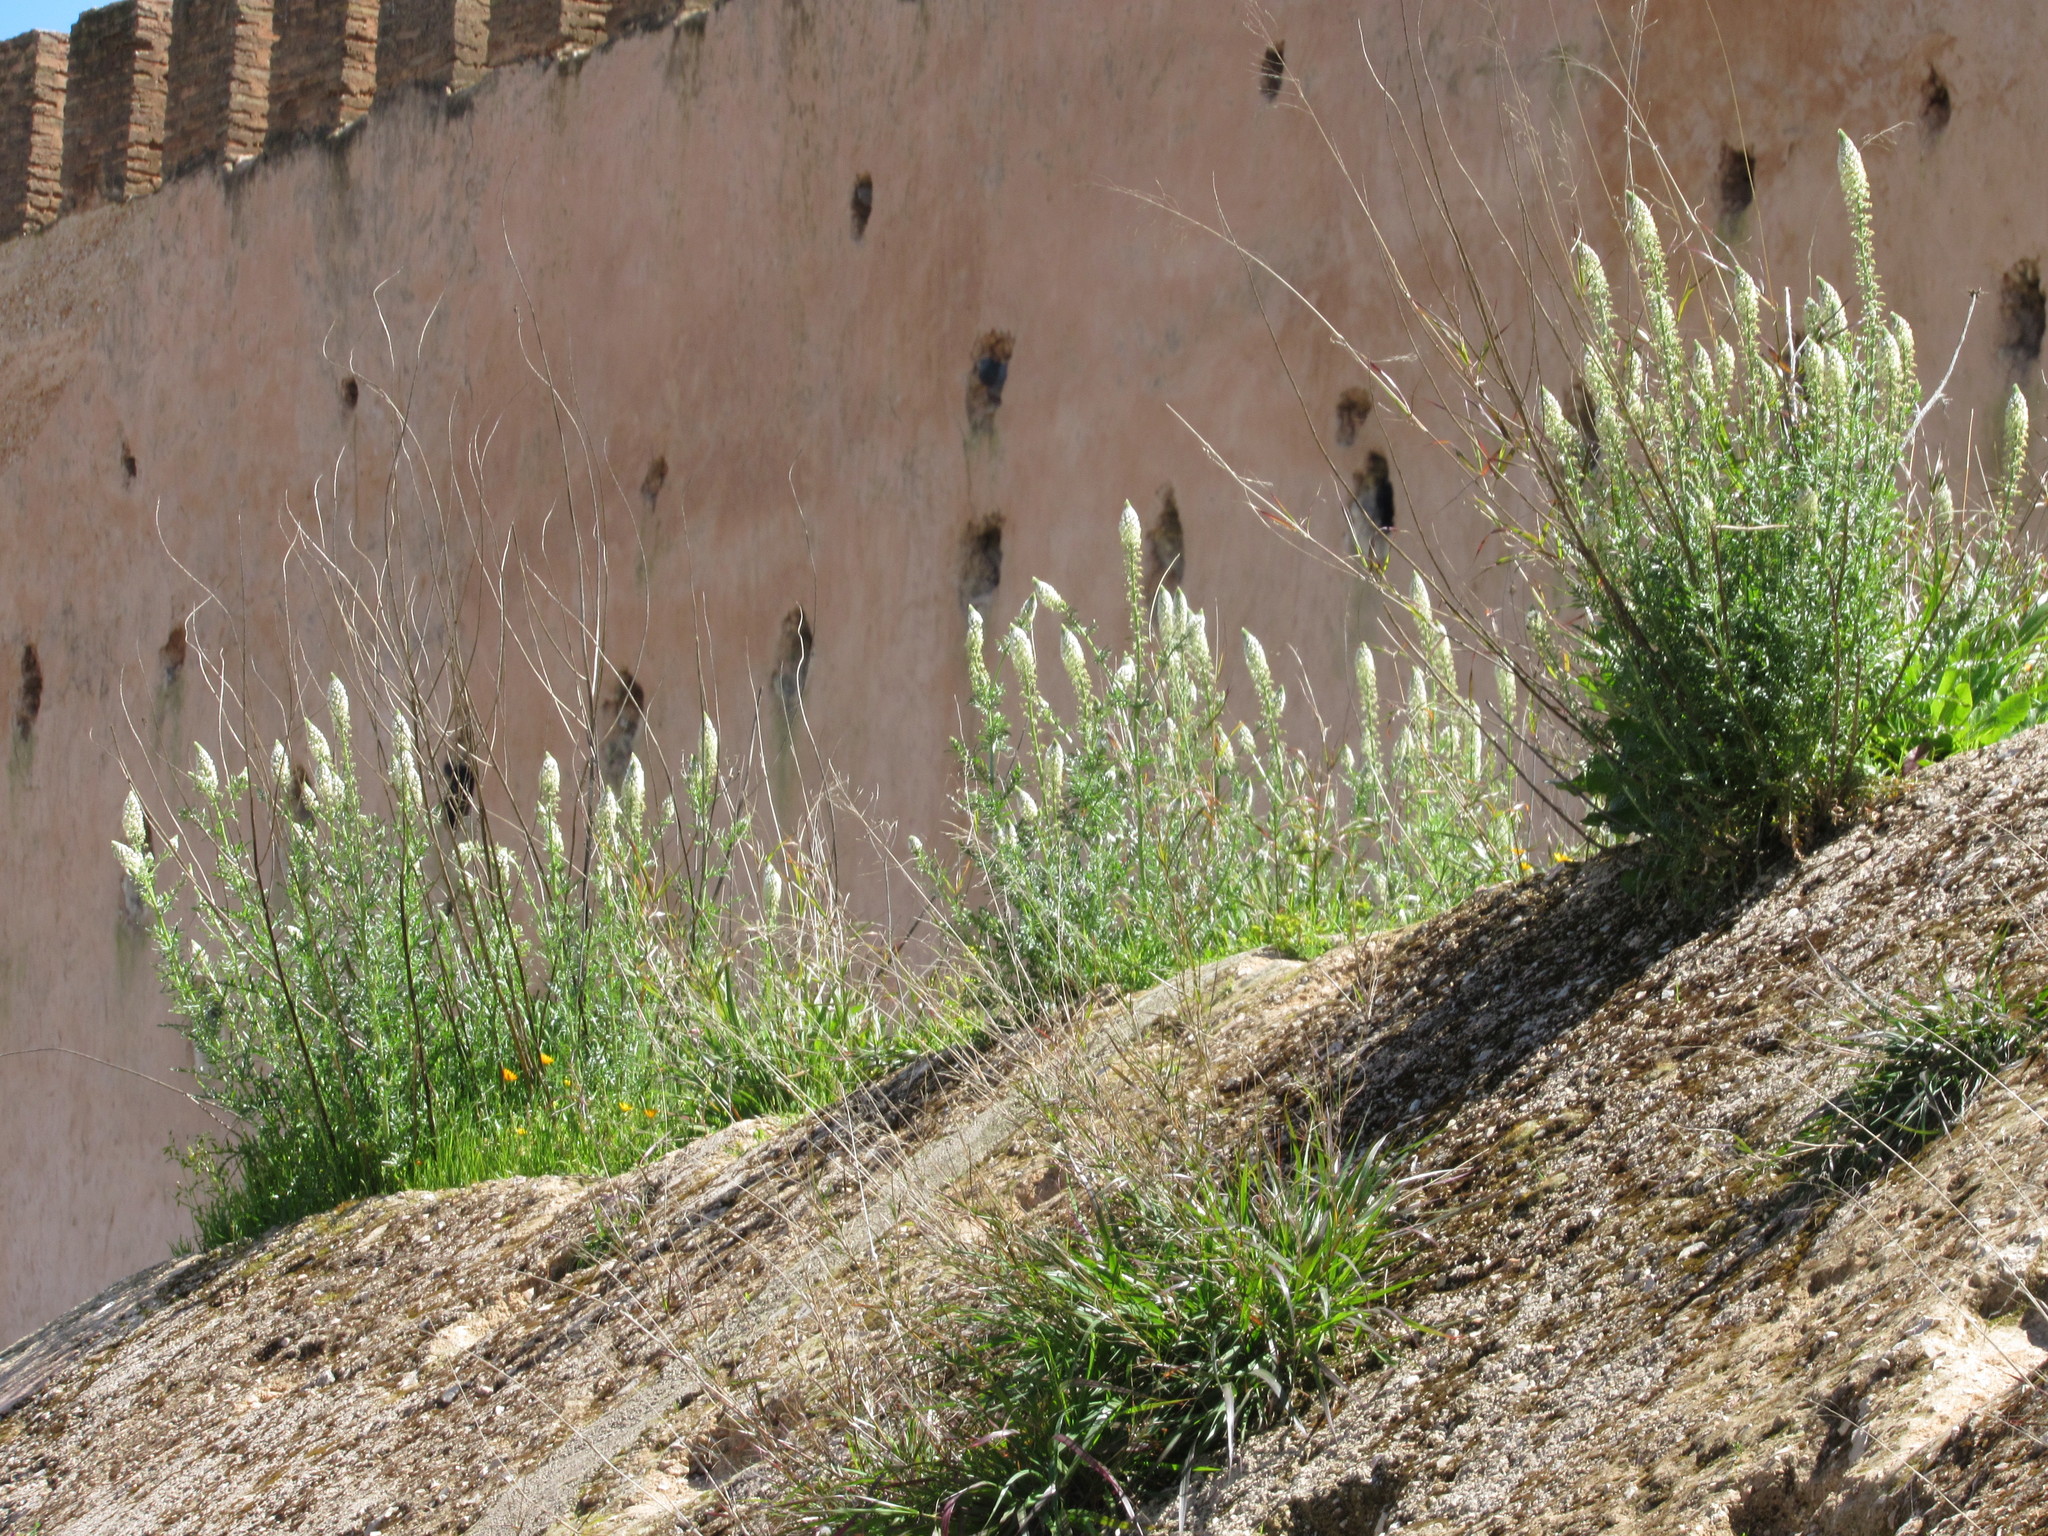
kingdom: Plantae
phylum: Tracheophyta
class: Magnoliopsida
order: Brassicales
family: Resedaceae
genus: Reseda
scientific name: Reseda alba
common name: White mignonette
